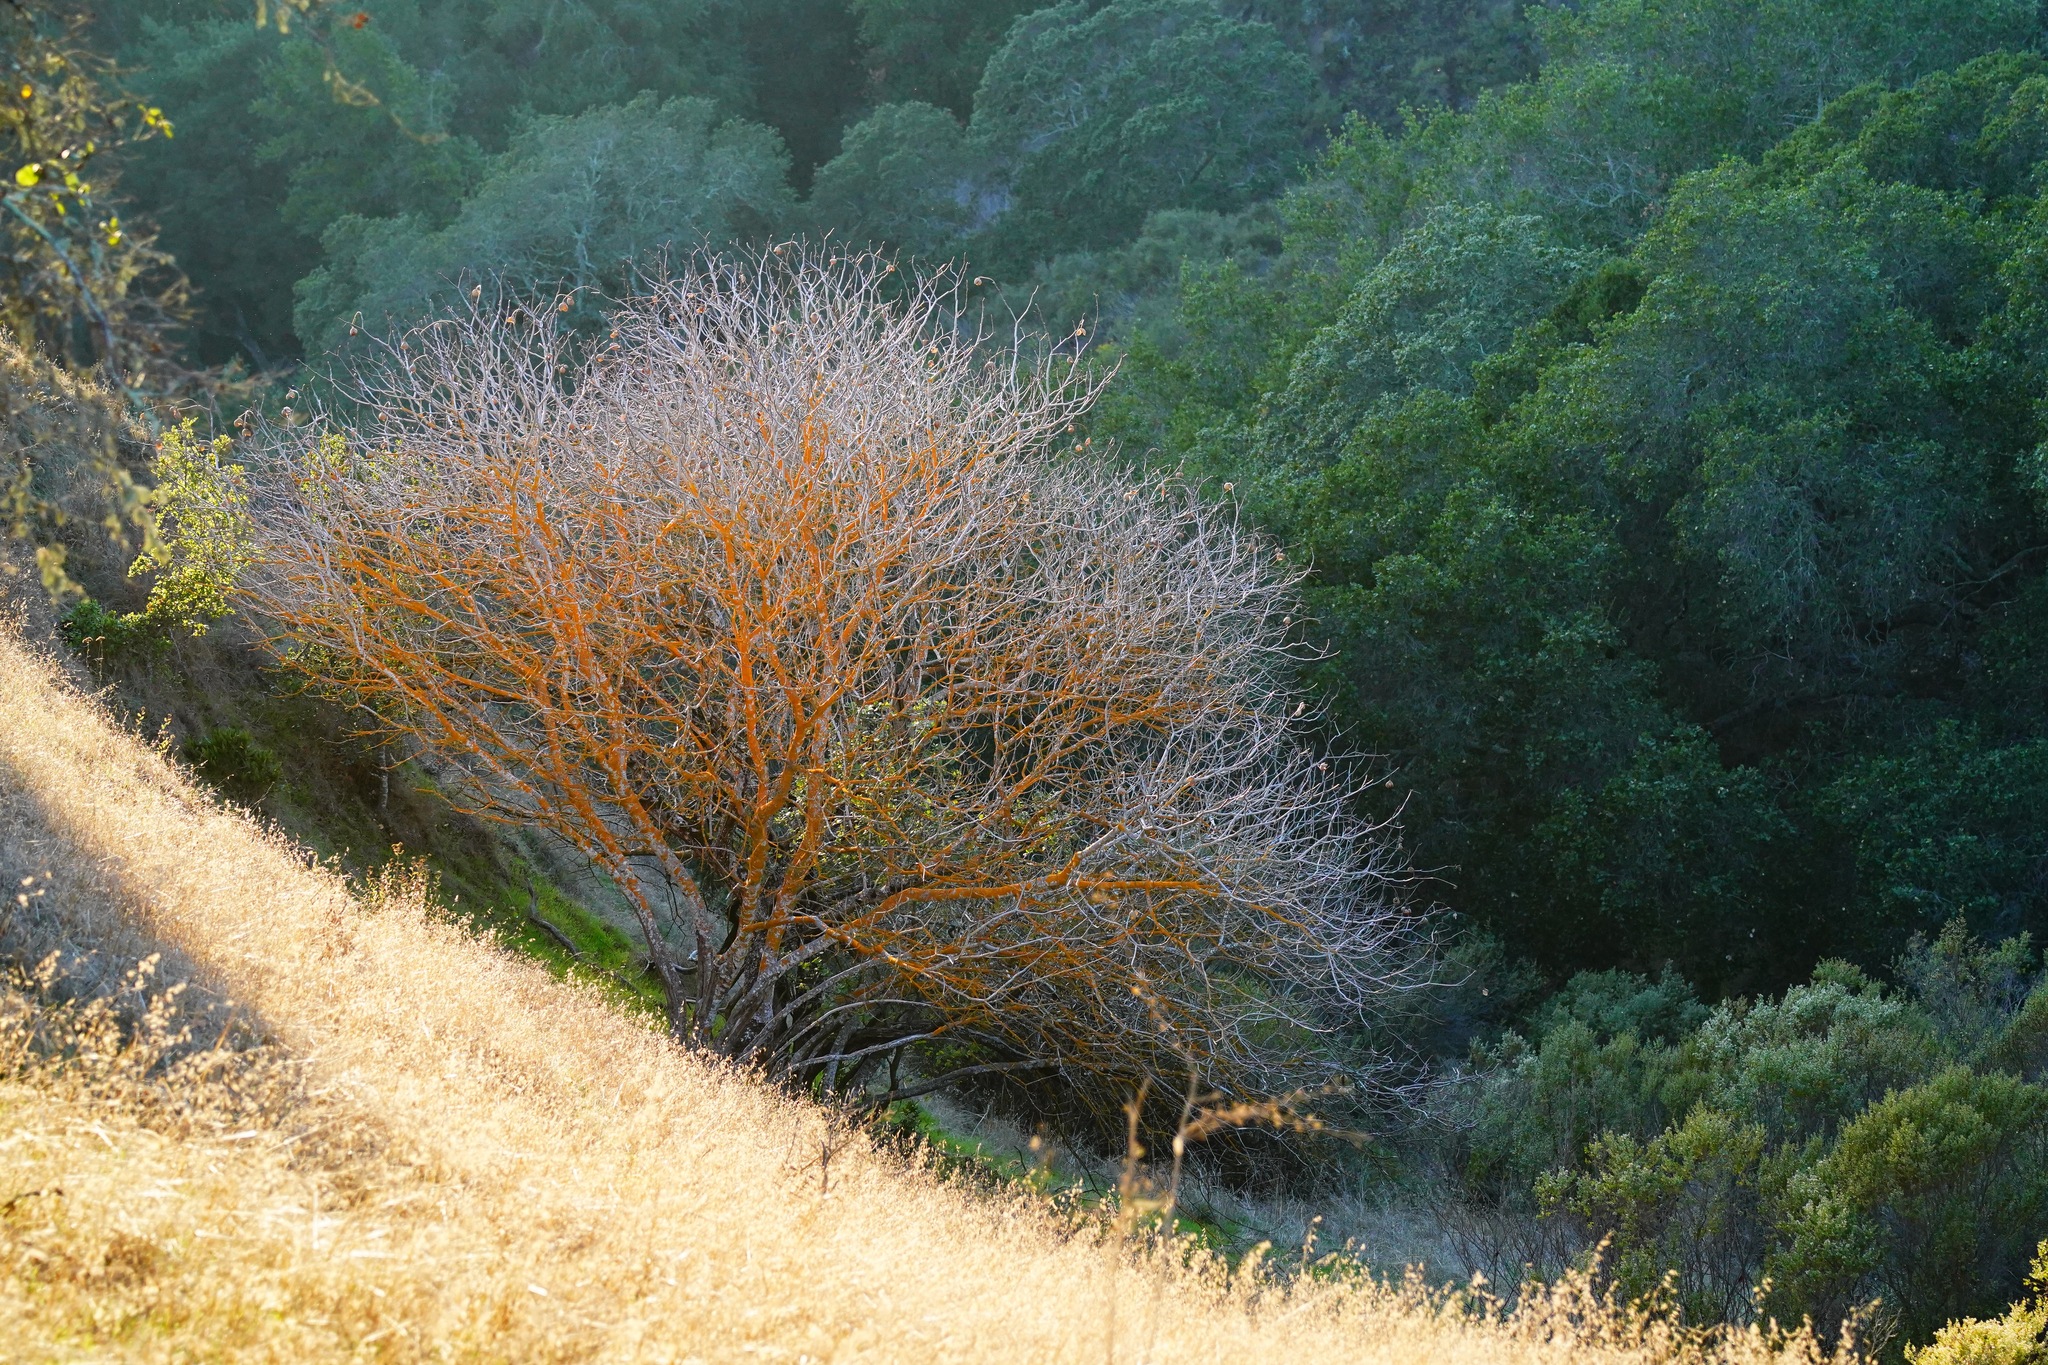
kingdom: Plantae
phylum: Tracheophyta
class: Magnoliopsida
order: Sapindales
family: Sapindaceae
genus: Aesculus
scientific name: Aesculus californica
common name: California buckeye
